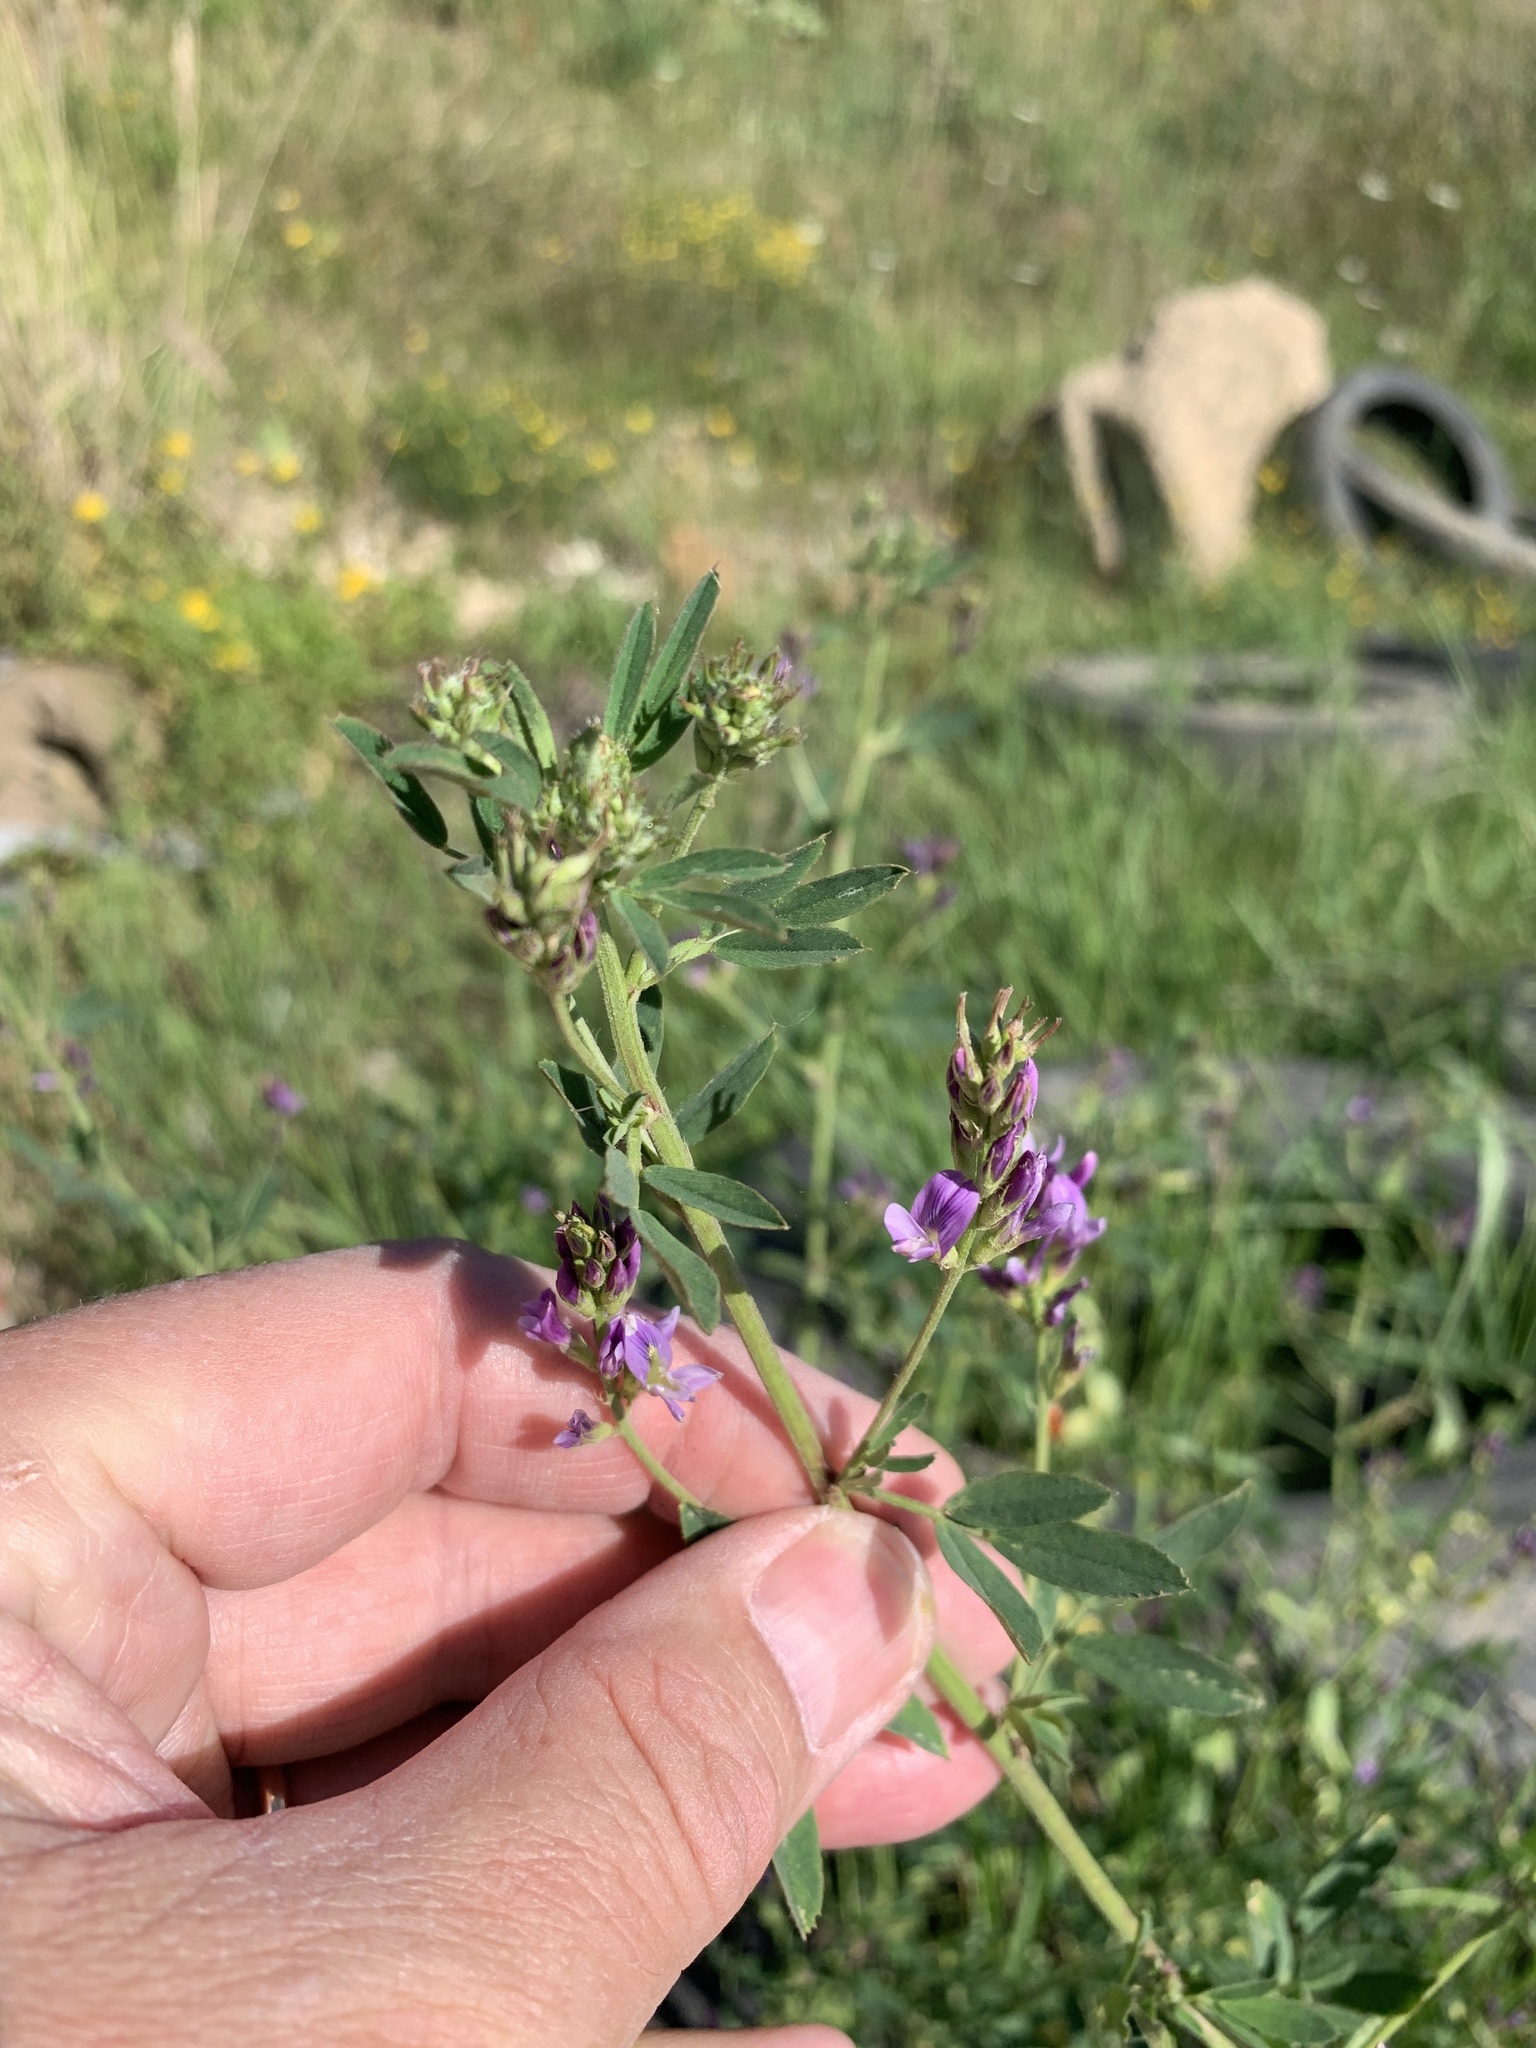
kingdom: Plantae
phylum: Tracheophyta
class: Magnoliopsida
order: Fabales
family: Fabaceae
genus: Medicago
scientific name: Medicago sativa
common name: Alfalfa
